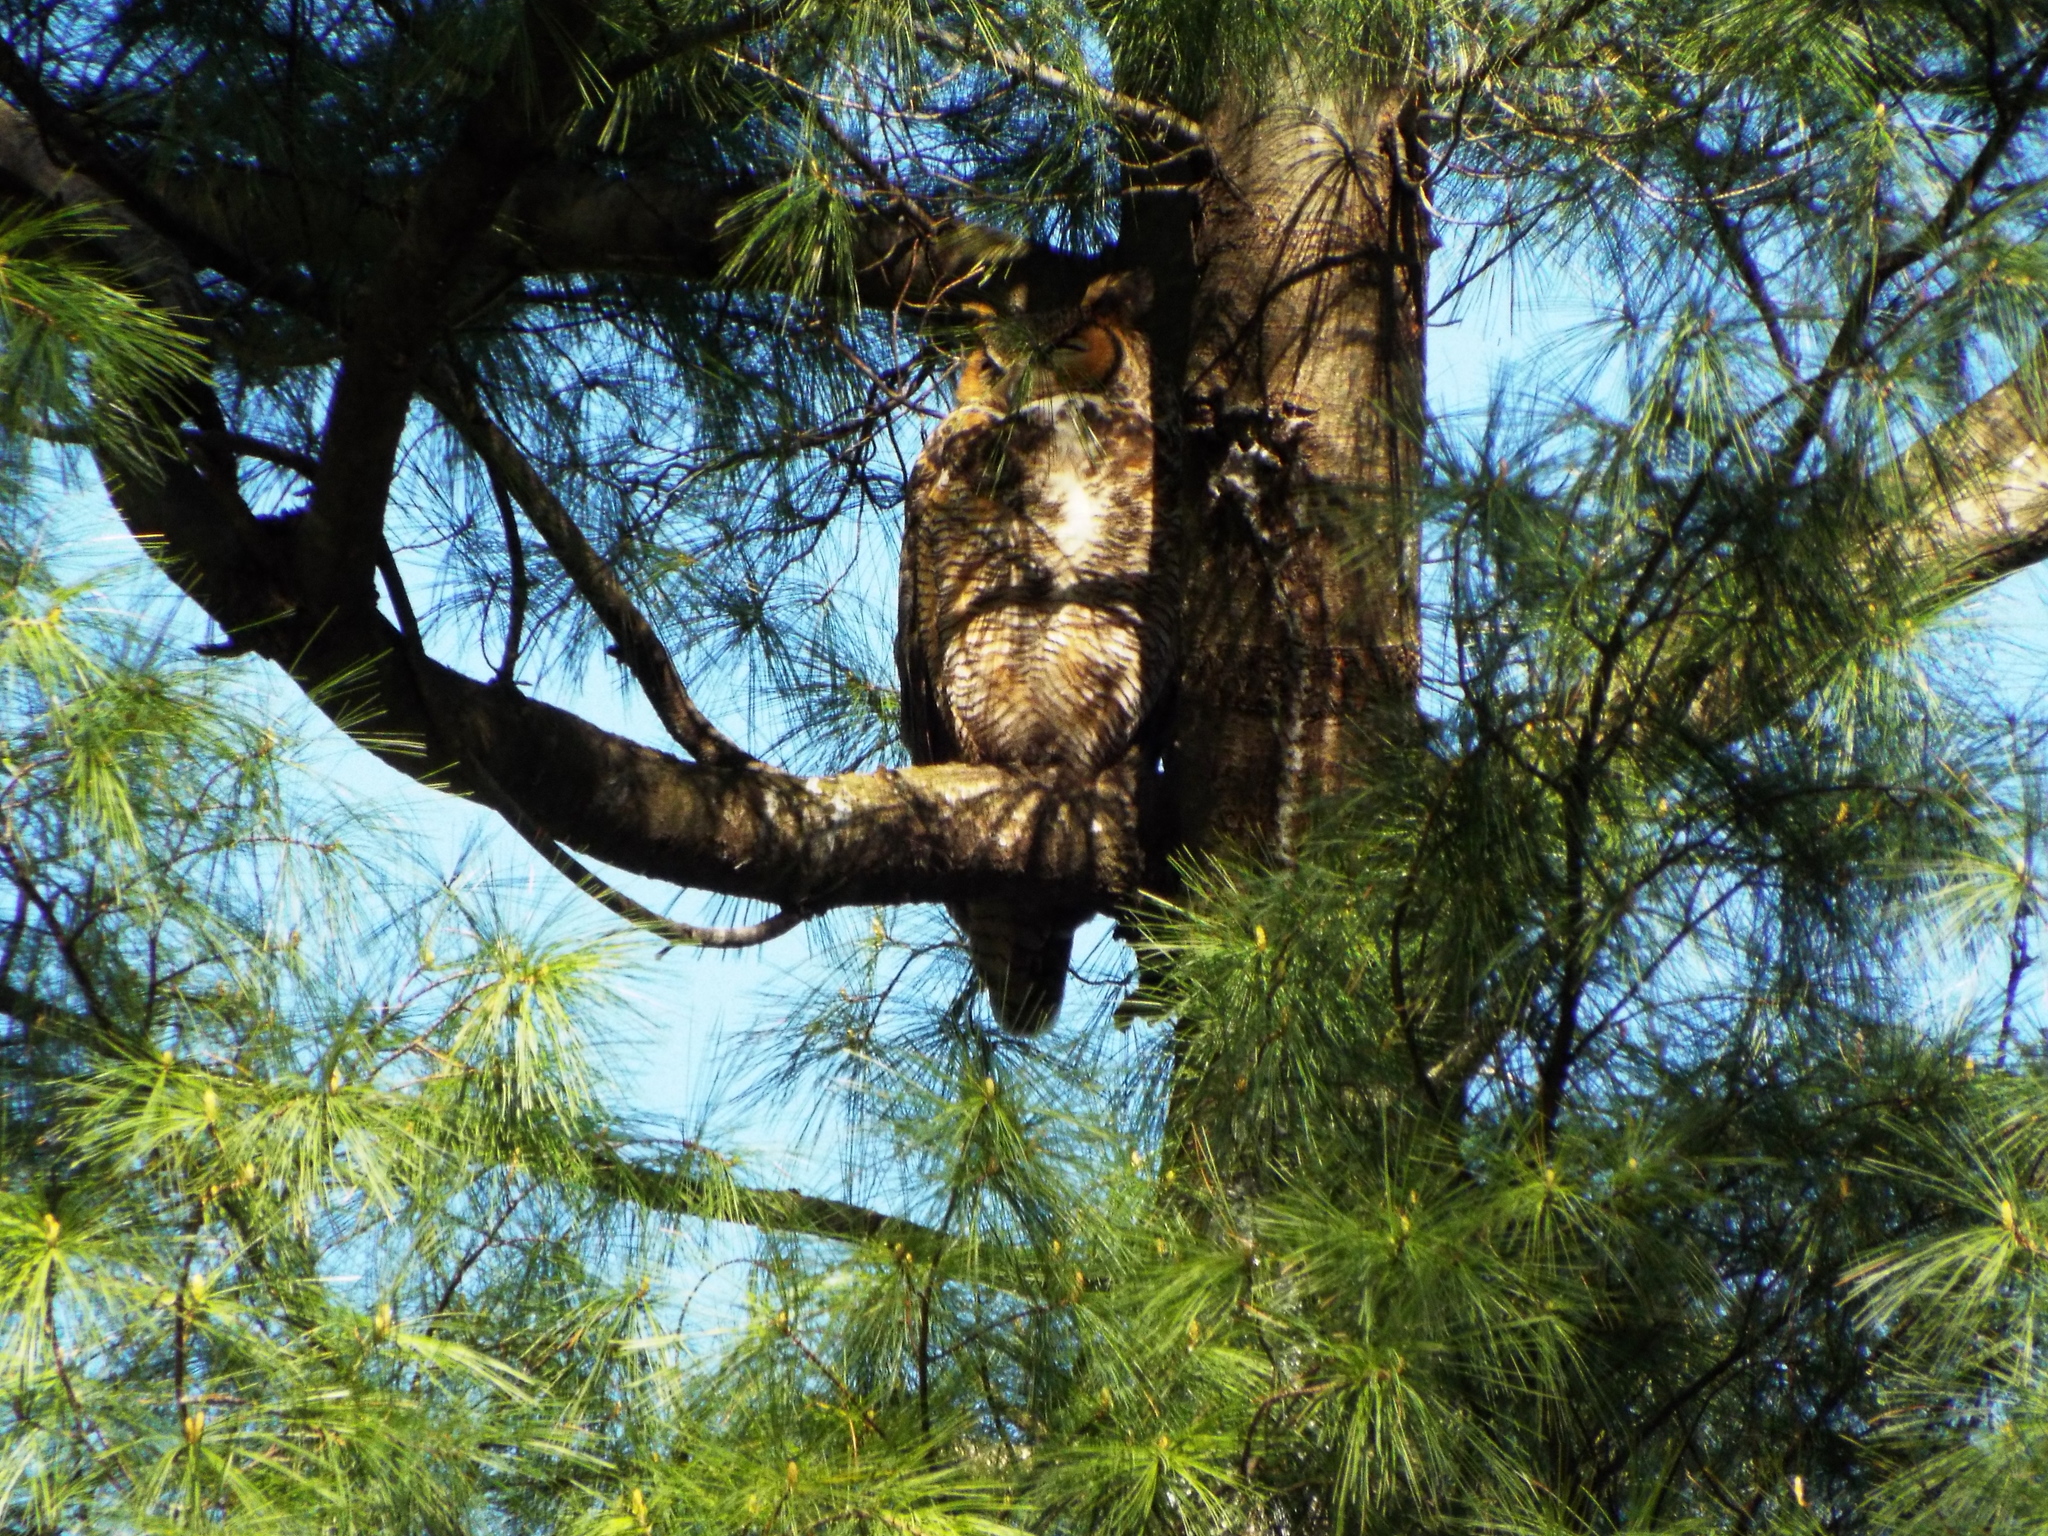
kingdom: Animalia
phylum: Chordata
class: Aves
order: Strigiformes
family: Strigidae
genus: Bubo
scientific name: Bubo virginianus
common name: Great horned owl
